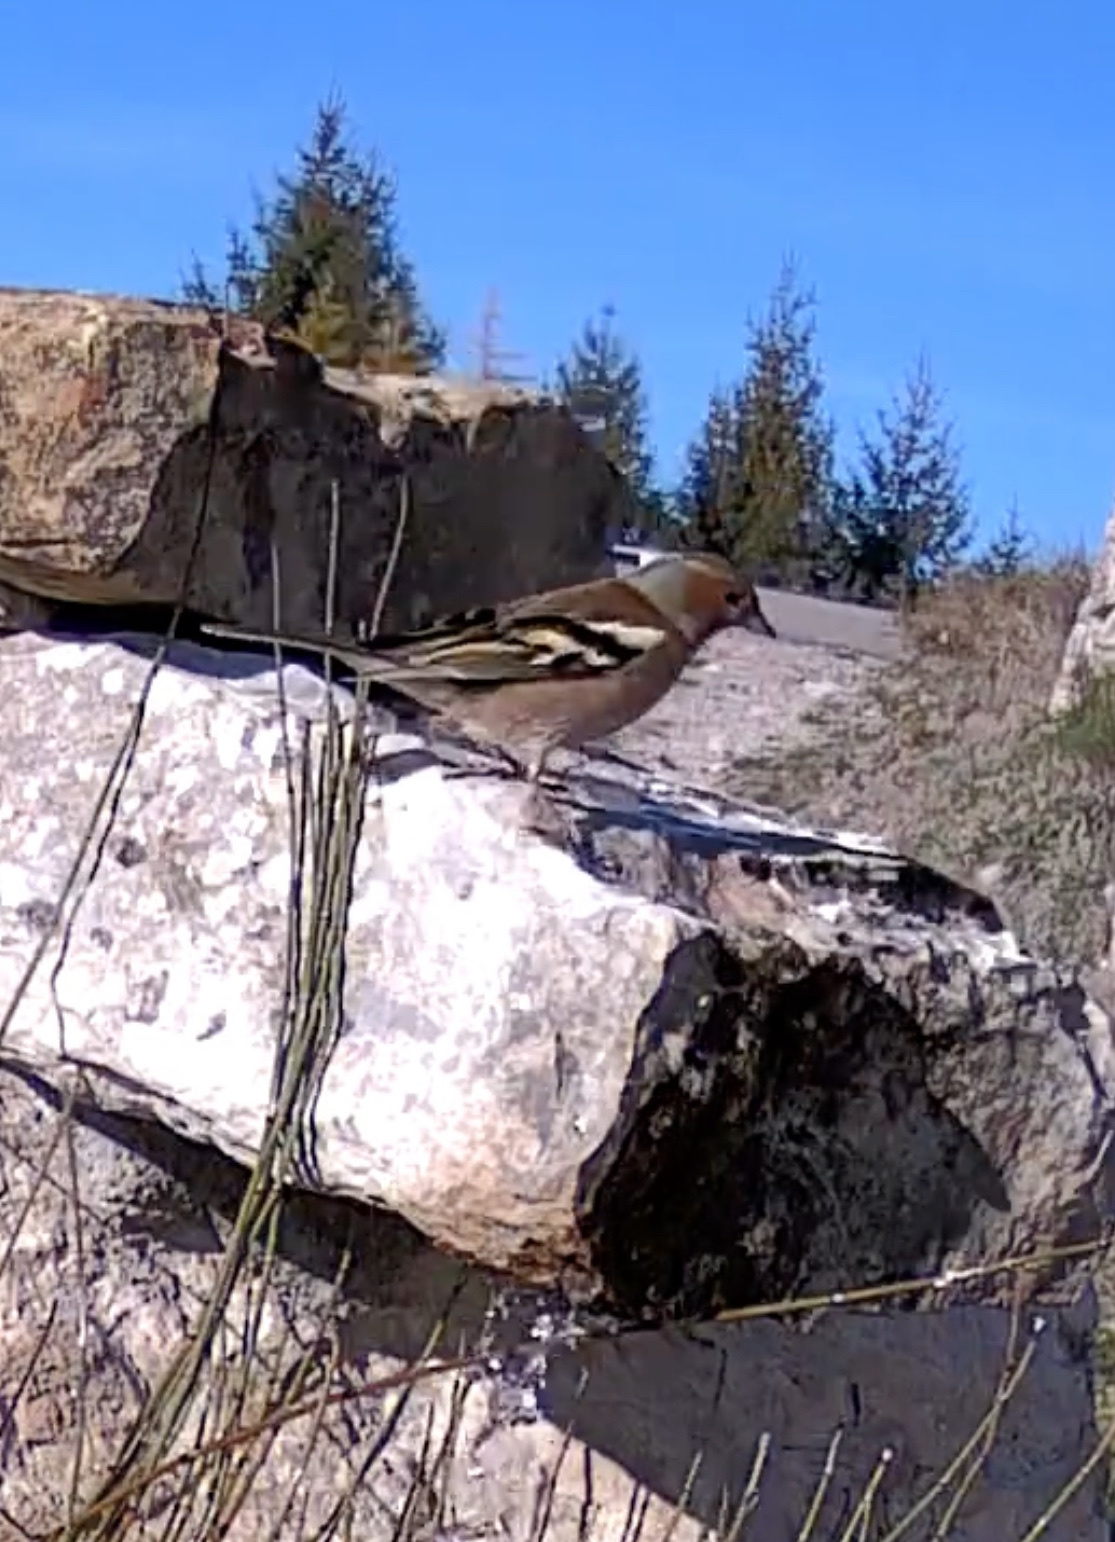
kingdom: Animalia
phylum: Chordata
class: Aves
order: Passeriformes
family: Fringillidae
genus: Fringilla
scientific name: Fringilla coelebs
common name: Common chaffinch
